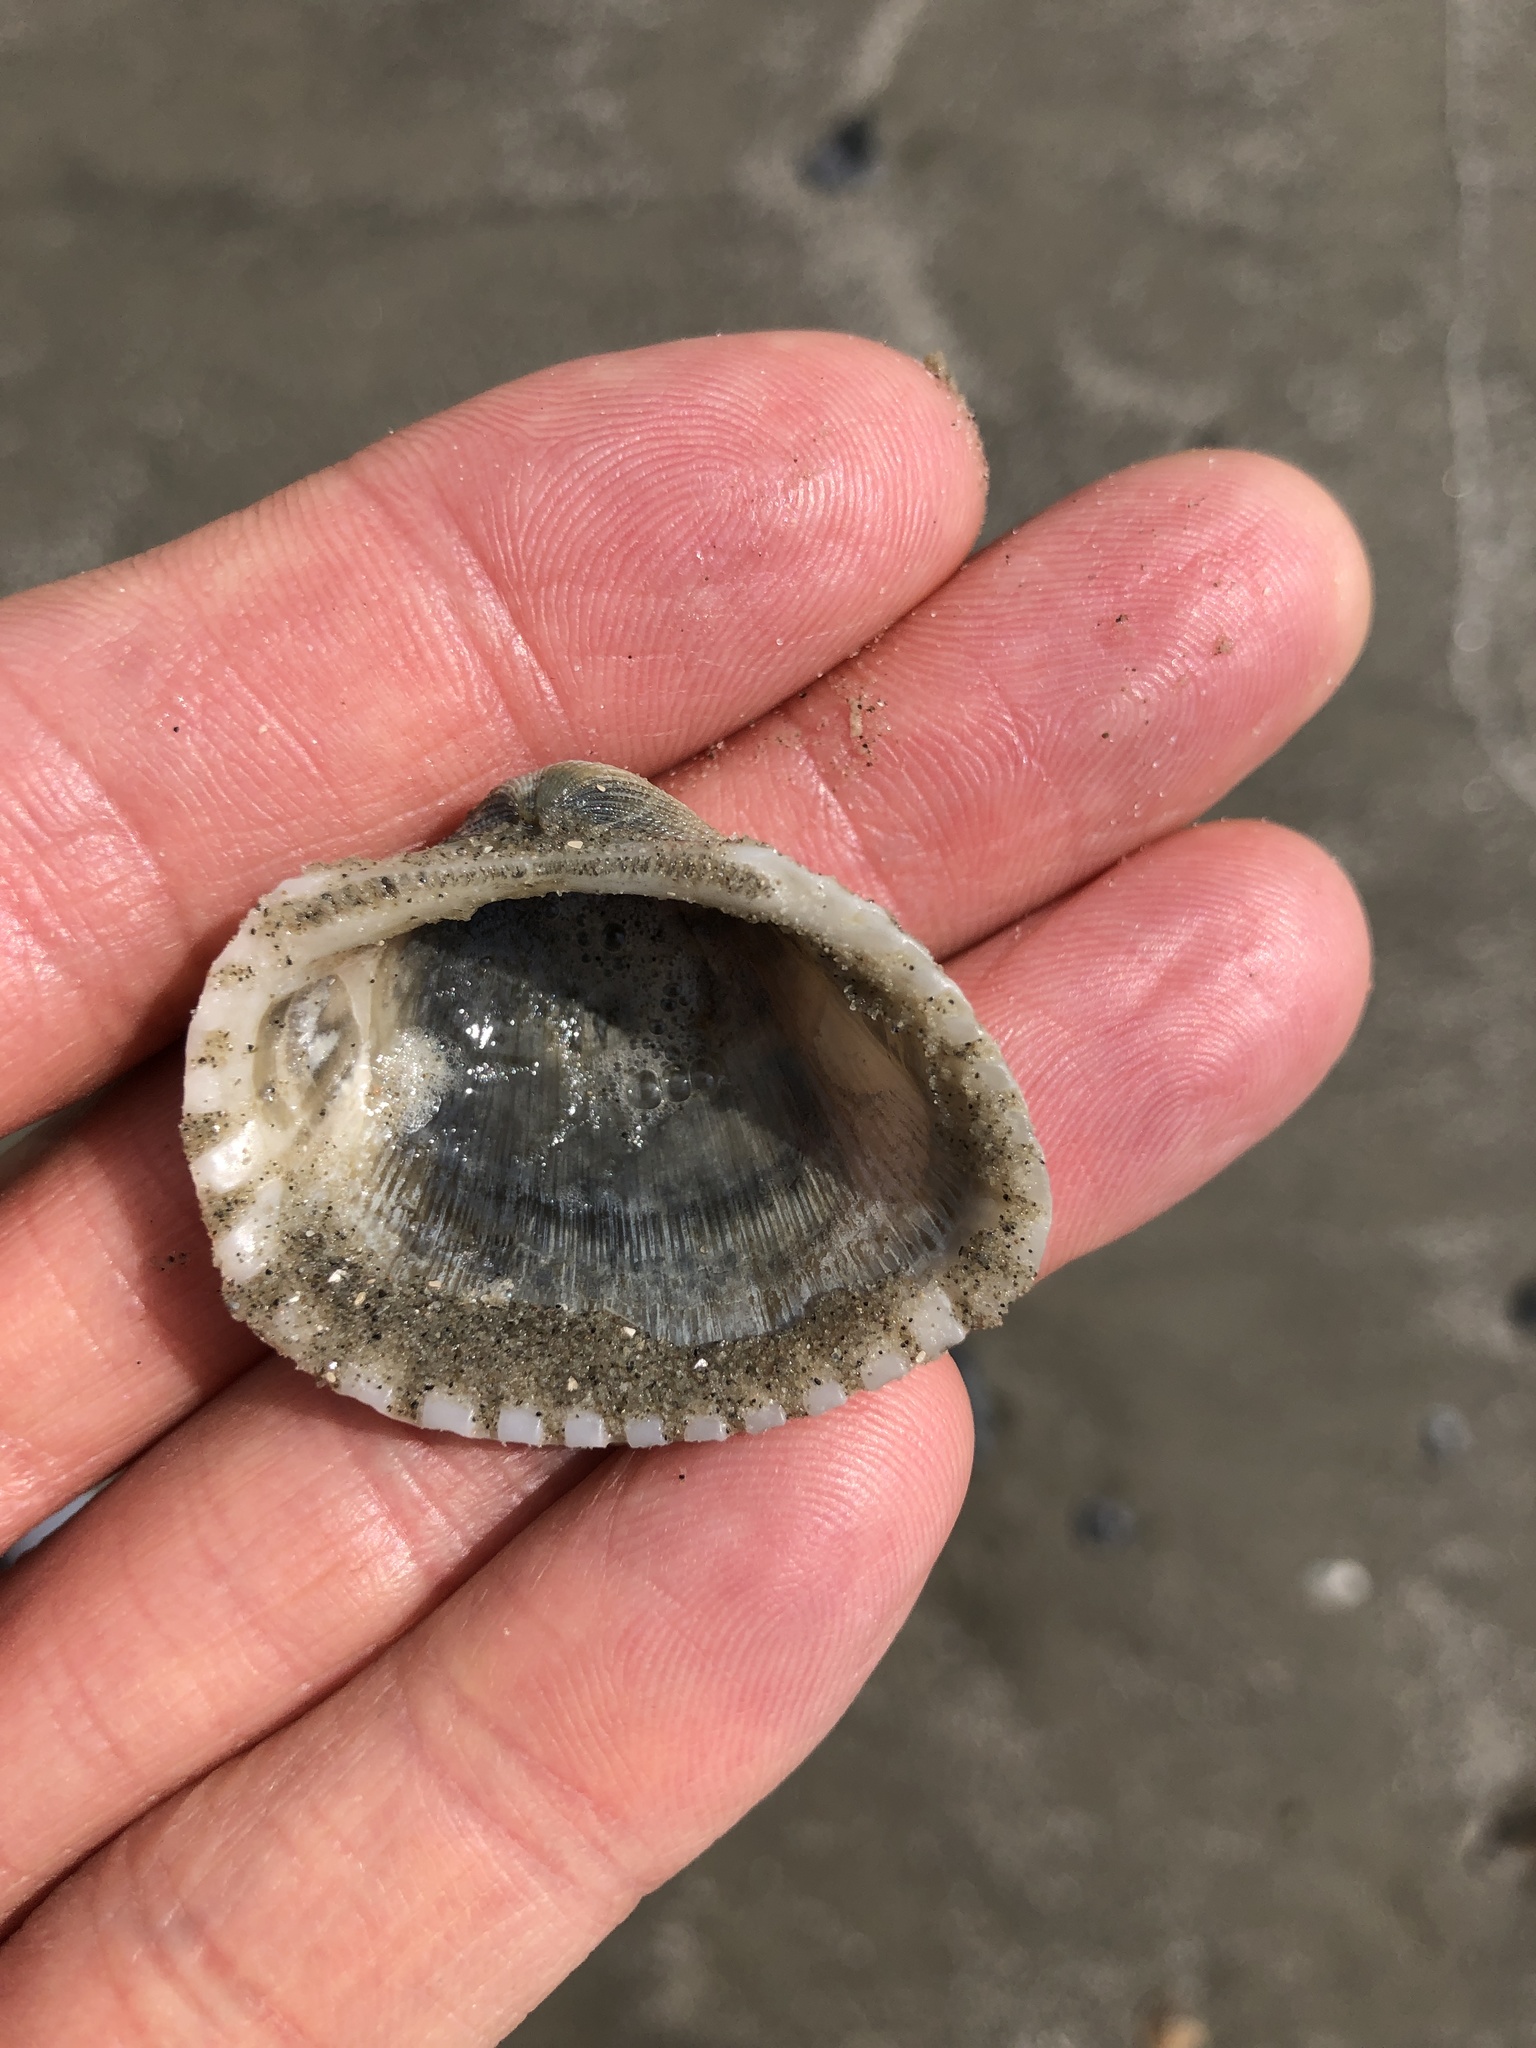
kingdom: Animalia
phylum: Mollusca
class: Bivalvia
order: Arcida
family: Arcidae
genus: Anadara
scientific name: Anadara brasiliana
